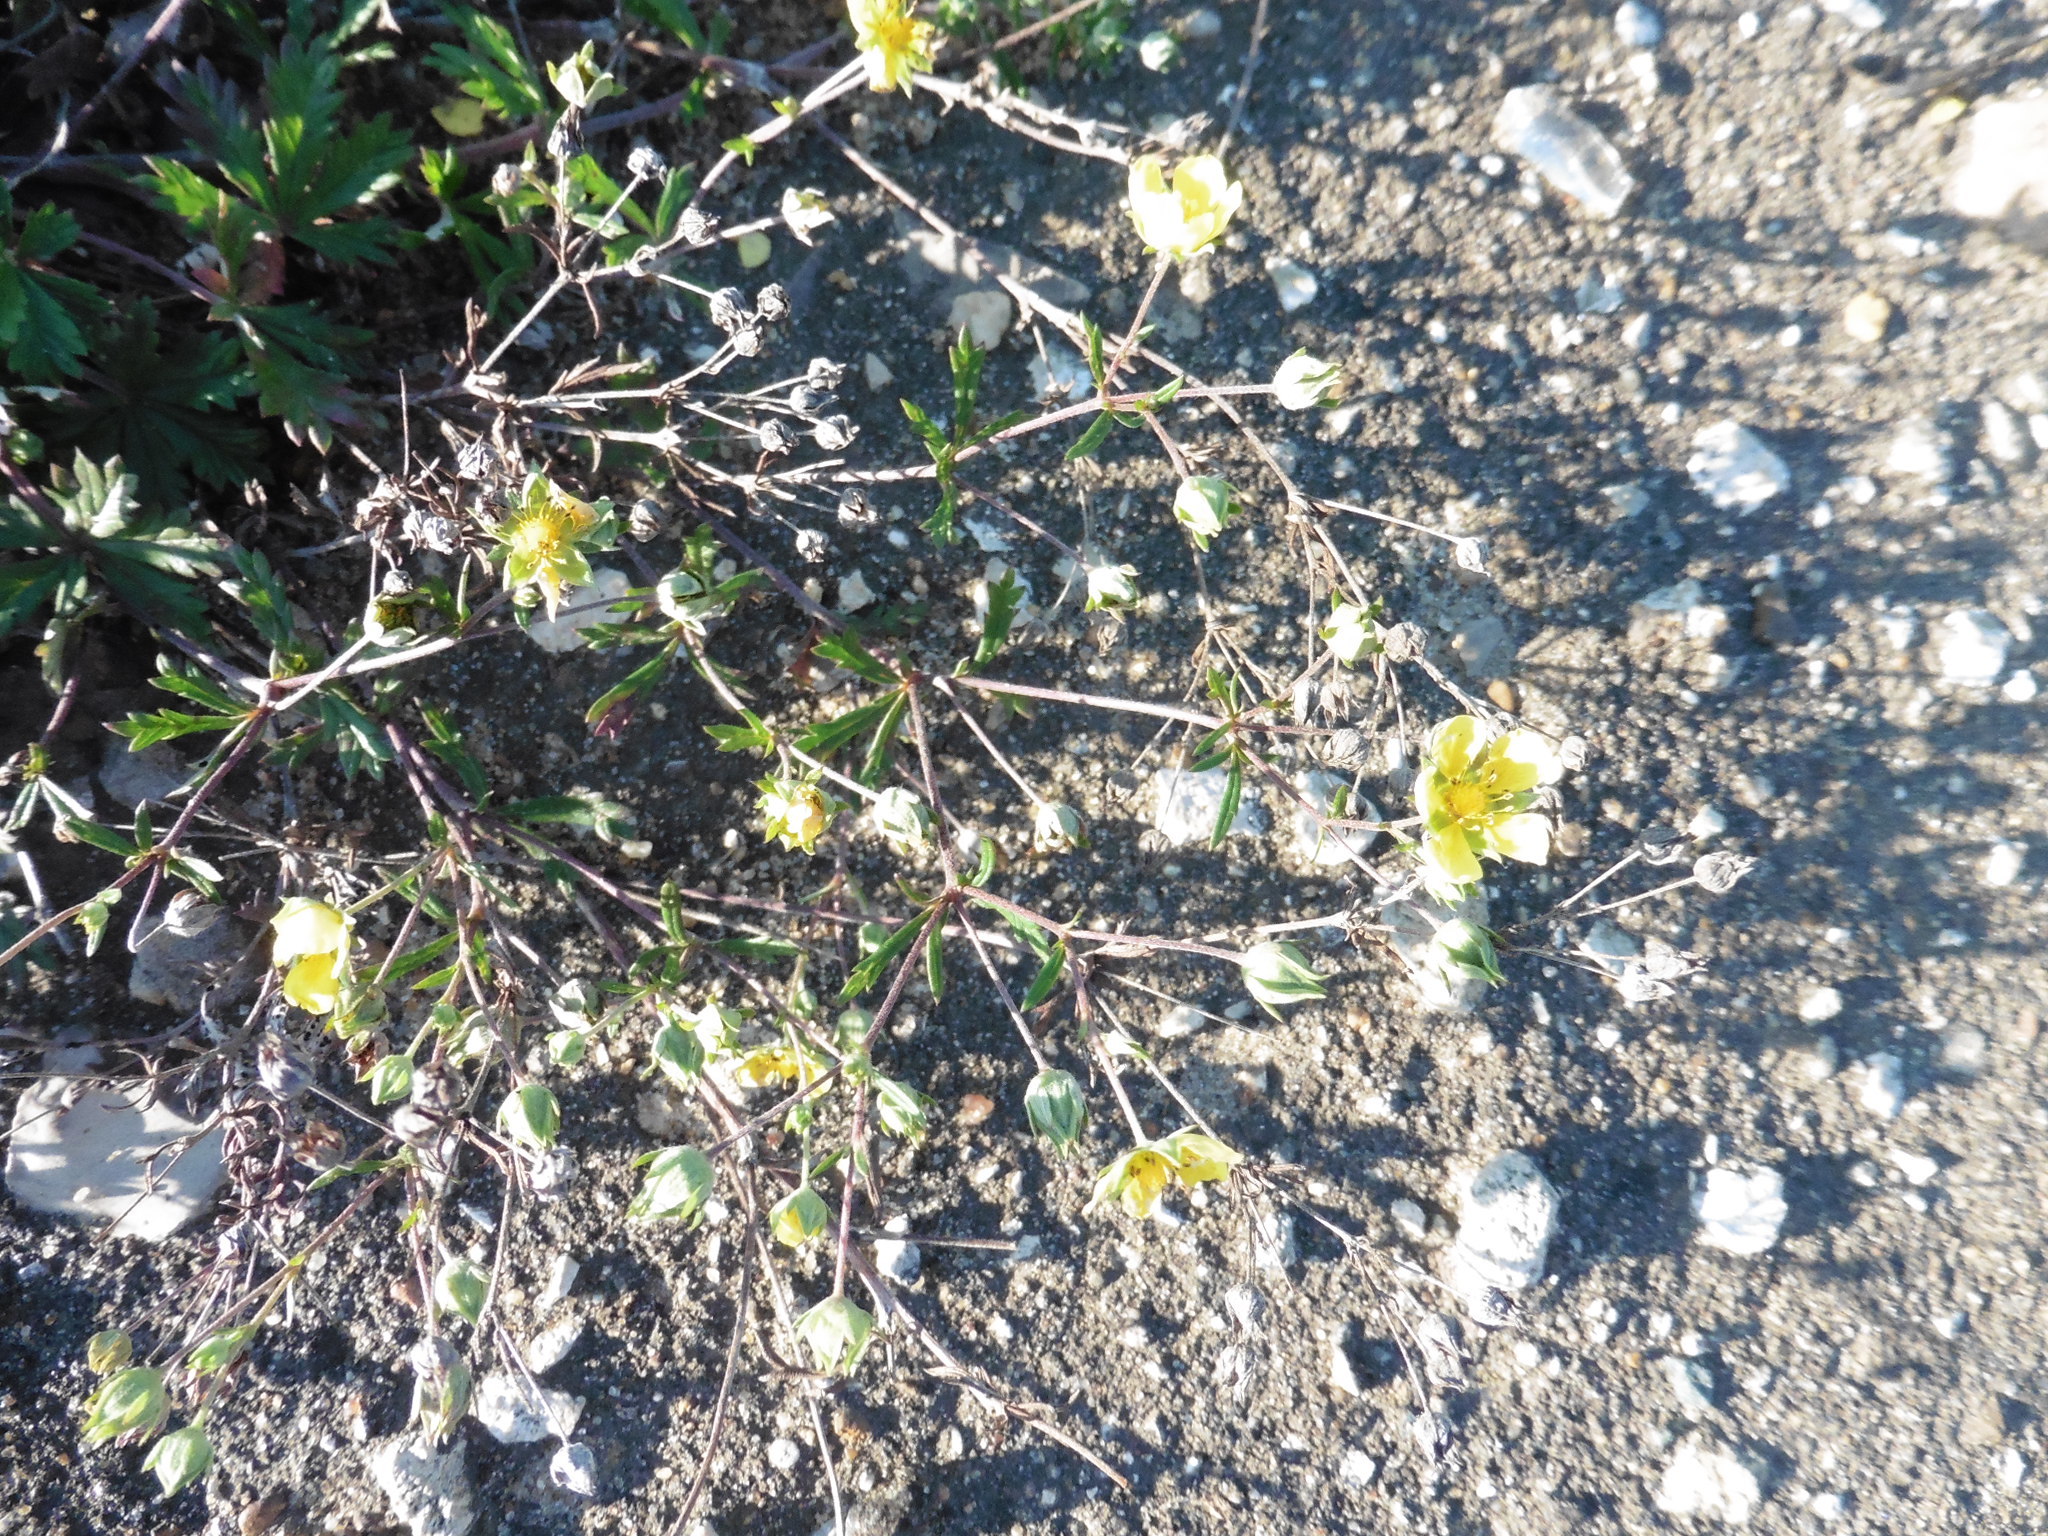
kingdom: Plantae
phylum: Tracheophyta
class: Magnoliopsida
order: Rosales
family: Rosaceae
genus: Potentilla
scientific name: Potentilla argentea
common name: Hoary cinquefoil
